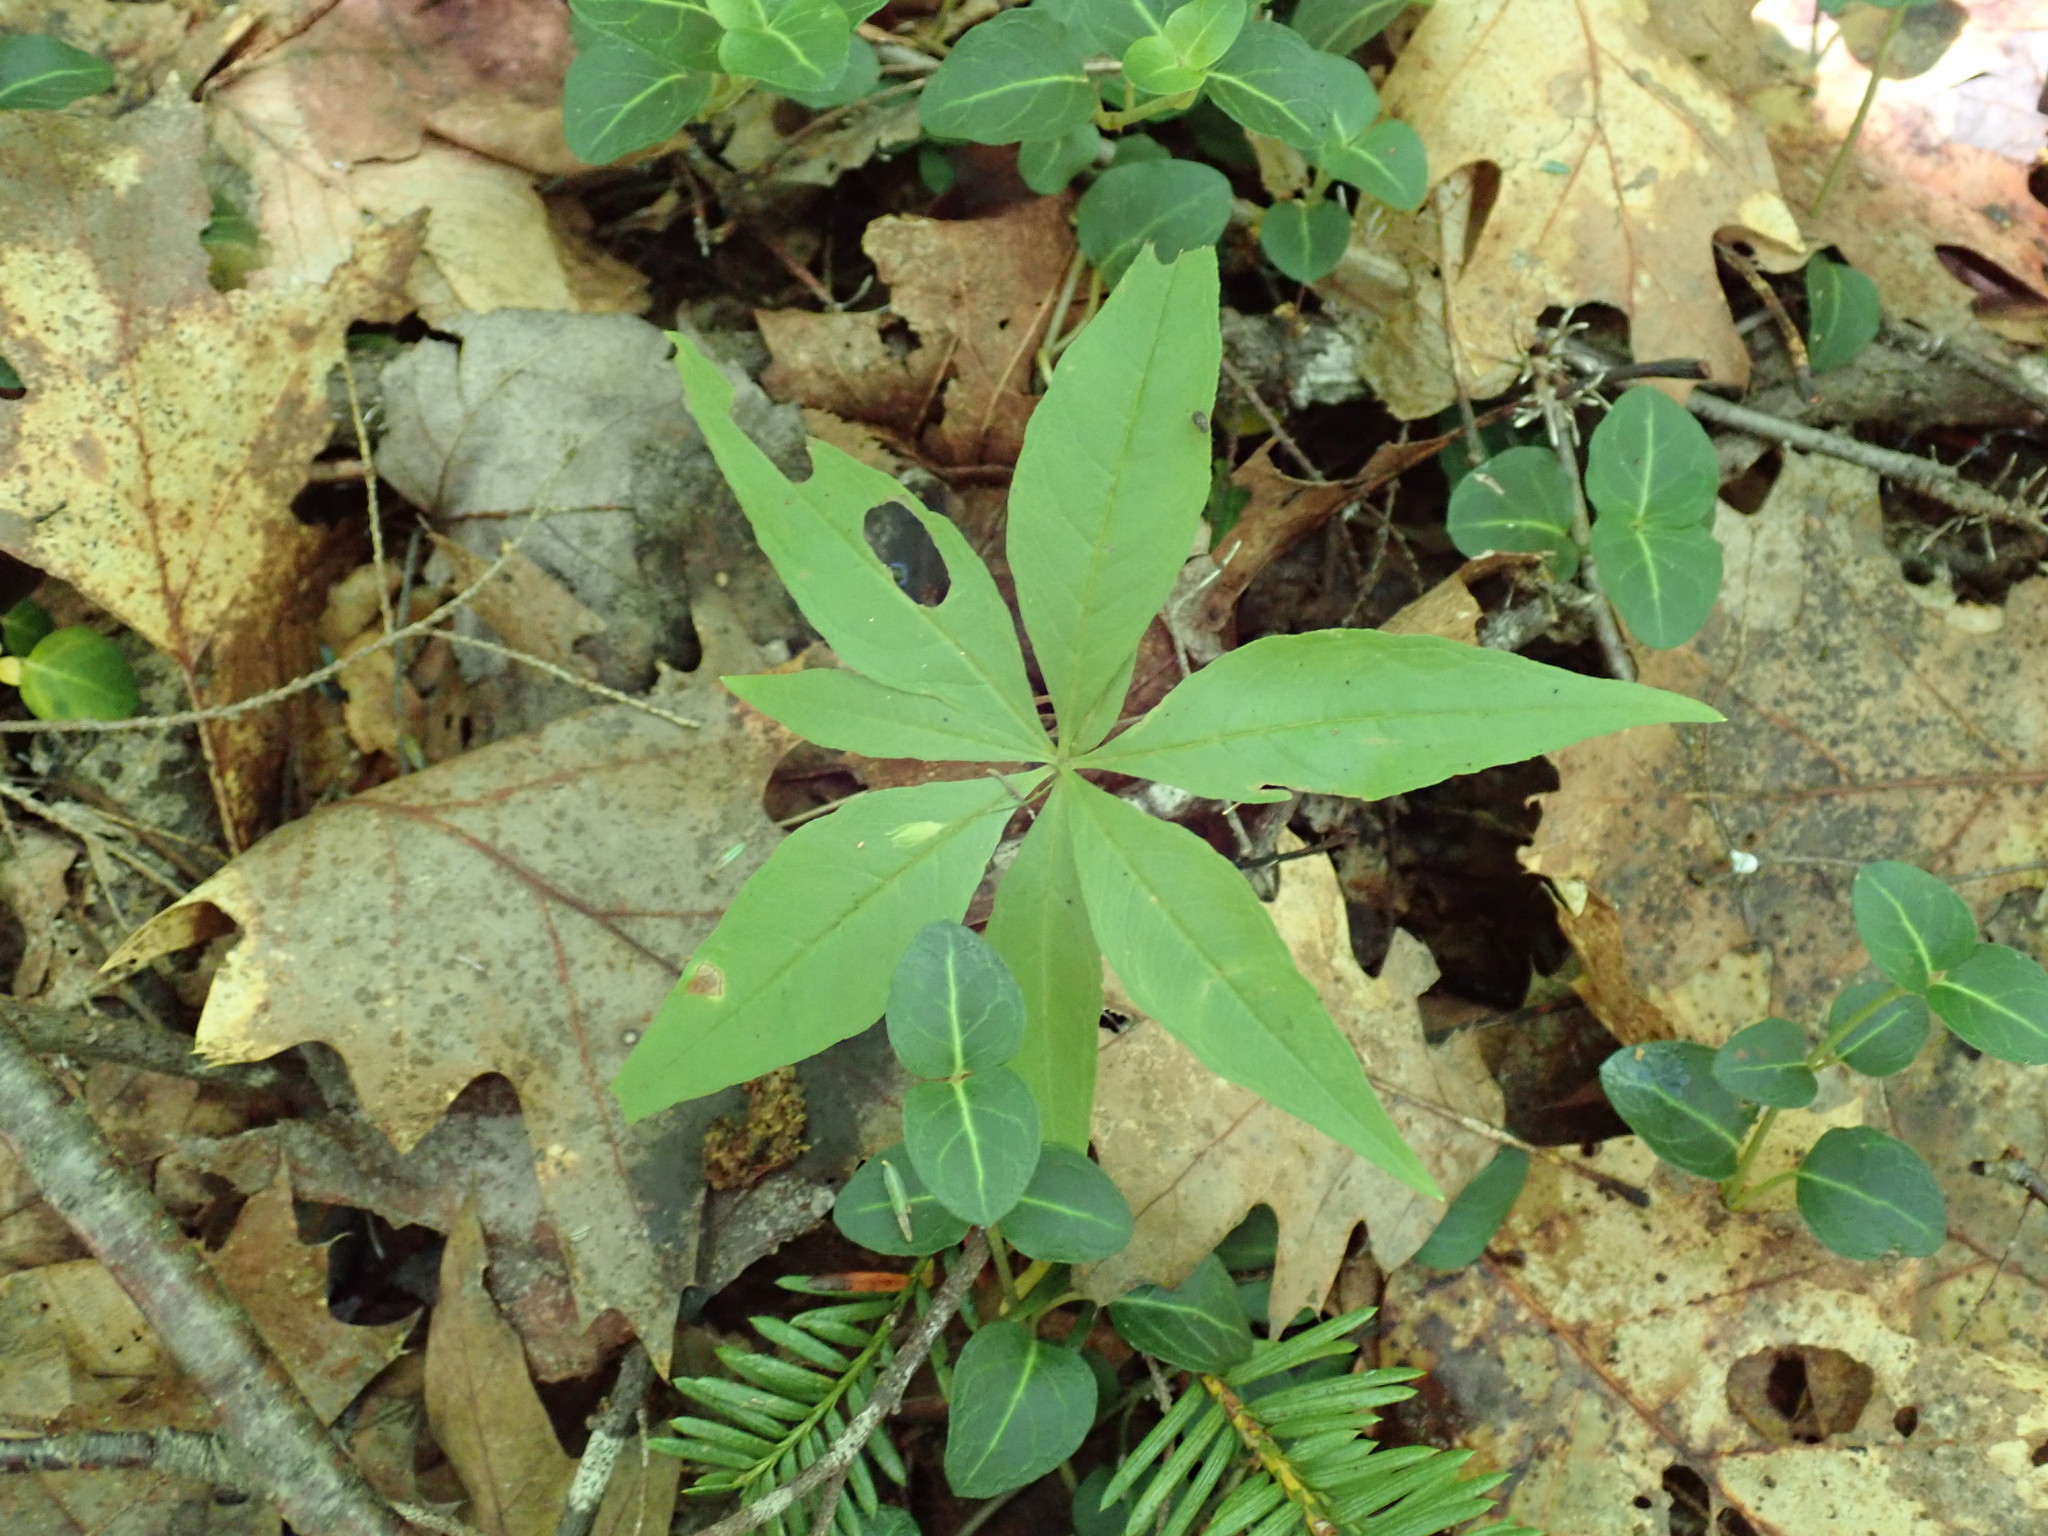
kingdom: Plantae
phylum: Tracheophyta
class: Magnoliopsida
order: Ericales
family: Primulaceae
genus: Lysimachia
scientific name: Lysimachia borealis
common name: American starflower
